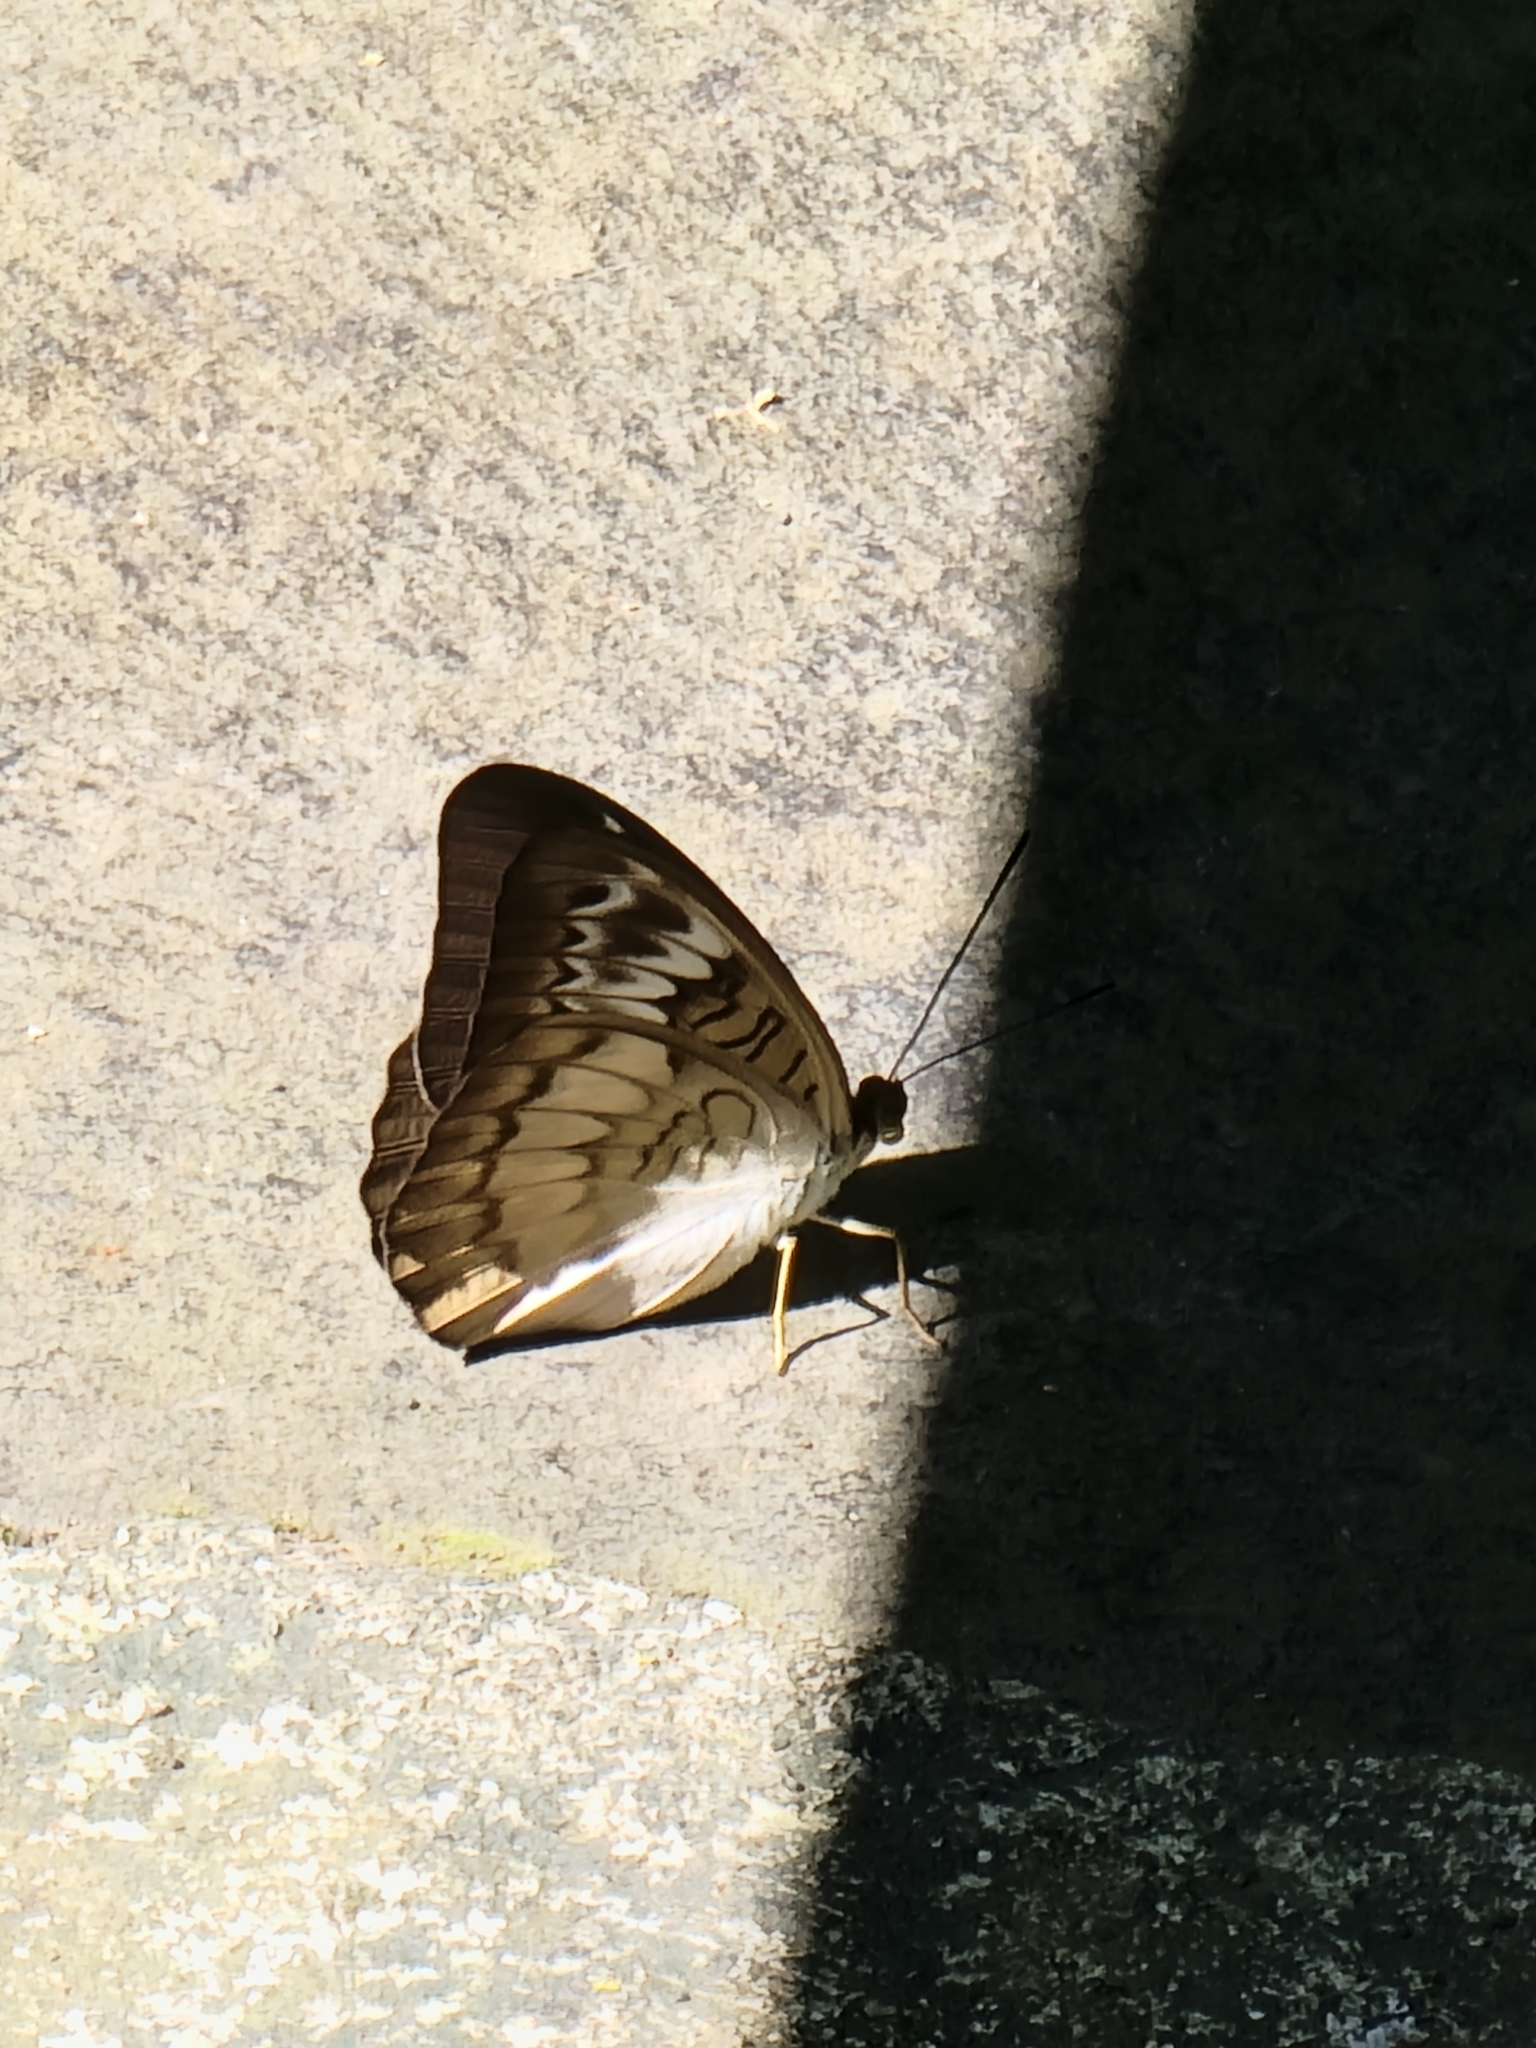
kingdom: Animalia
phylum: Arthropoda
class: Insecta
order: Lepidoptera
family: Nymphalidae
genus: Tanaecia
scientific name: Tanaecia palguna
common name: Long-lined viscount
